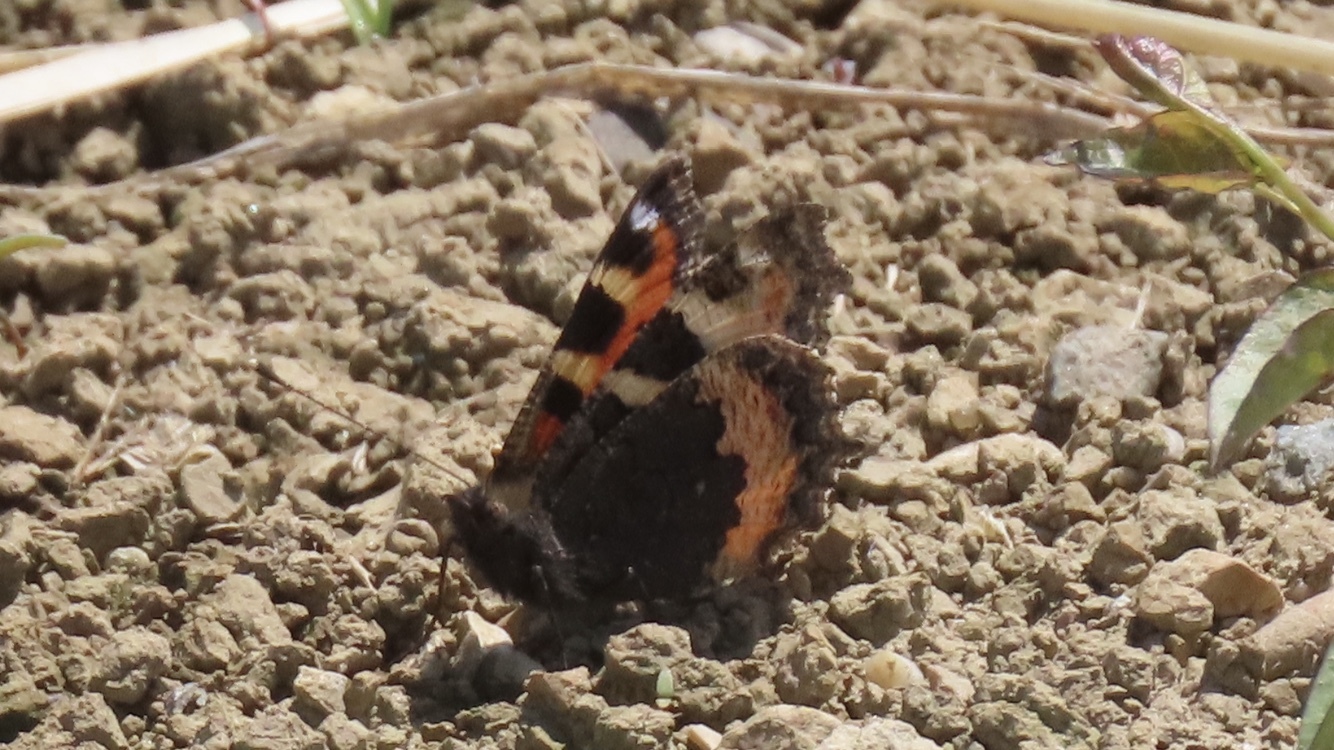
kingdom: Animalia
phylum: Arthropoda
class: Insecta
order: Lepidoptera
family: Nymphalidae
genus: Aglais
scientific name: Aglais urticae
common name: Small tortoiseshell
